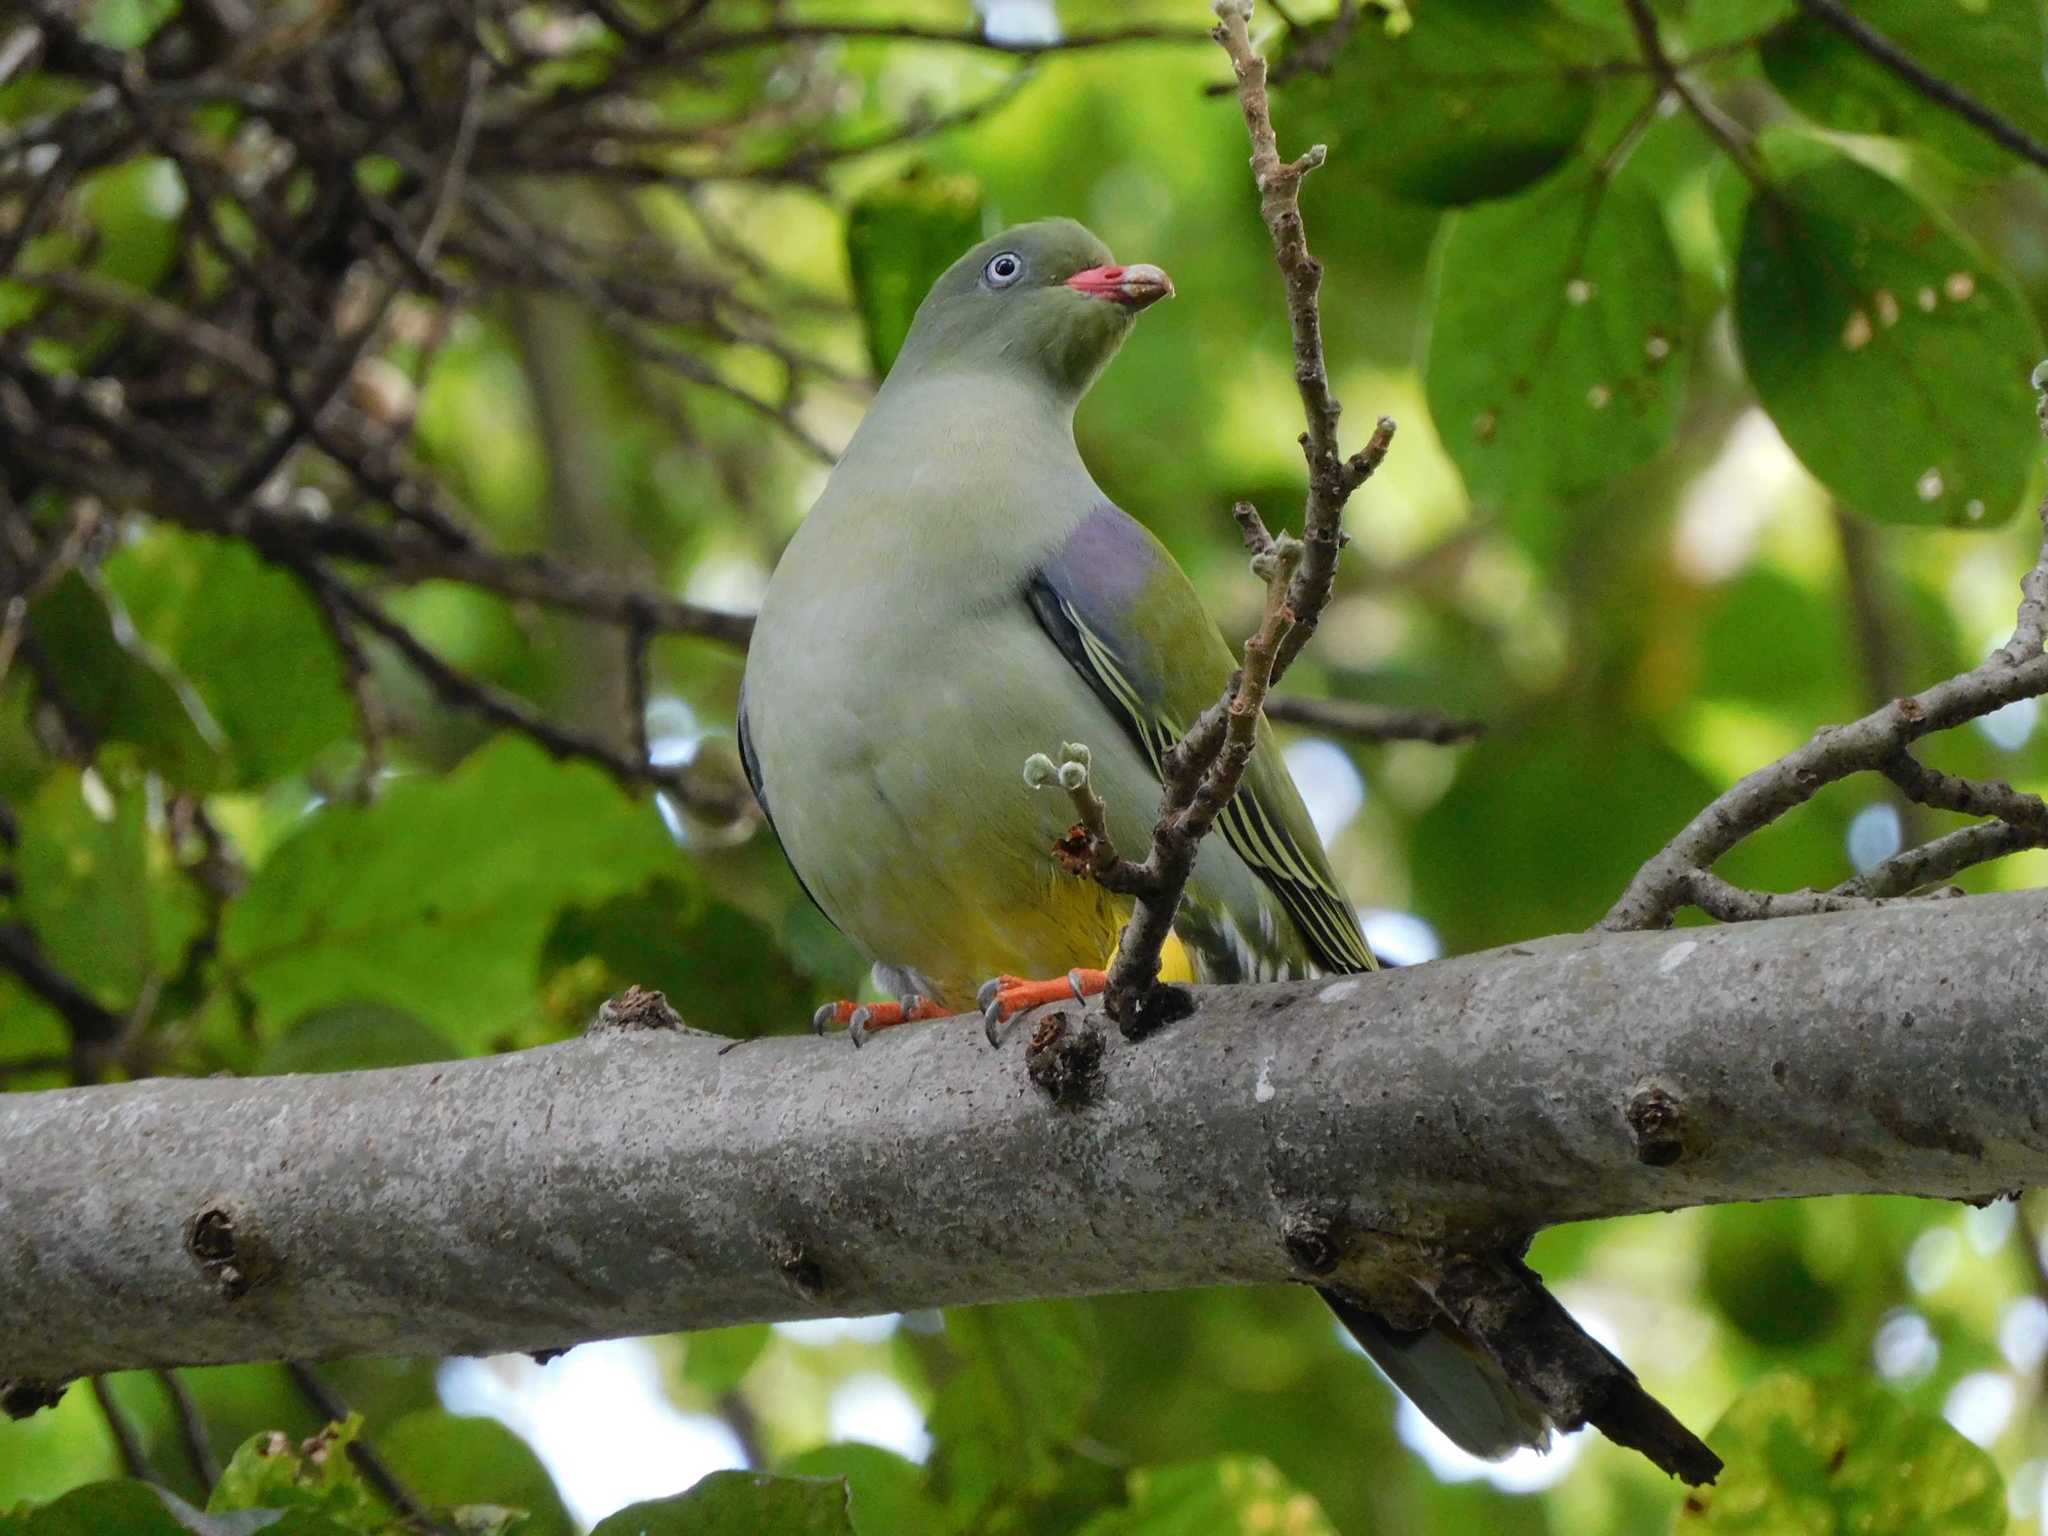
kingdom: Animalia
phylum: Chordata
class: Aves
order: Columbiformes
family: Columbidae
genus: Treron
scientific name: Treron calvus
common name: African green pigeon
